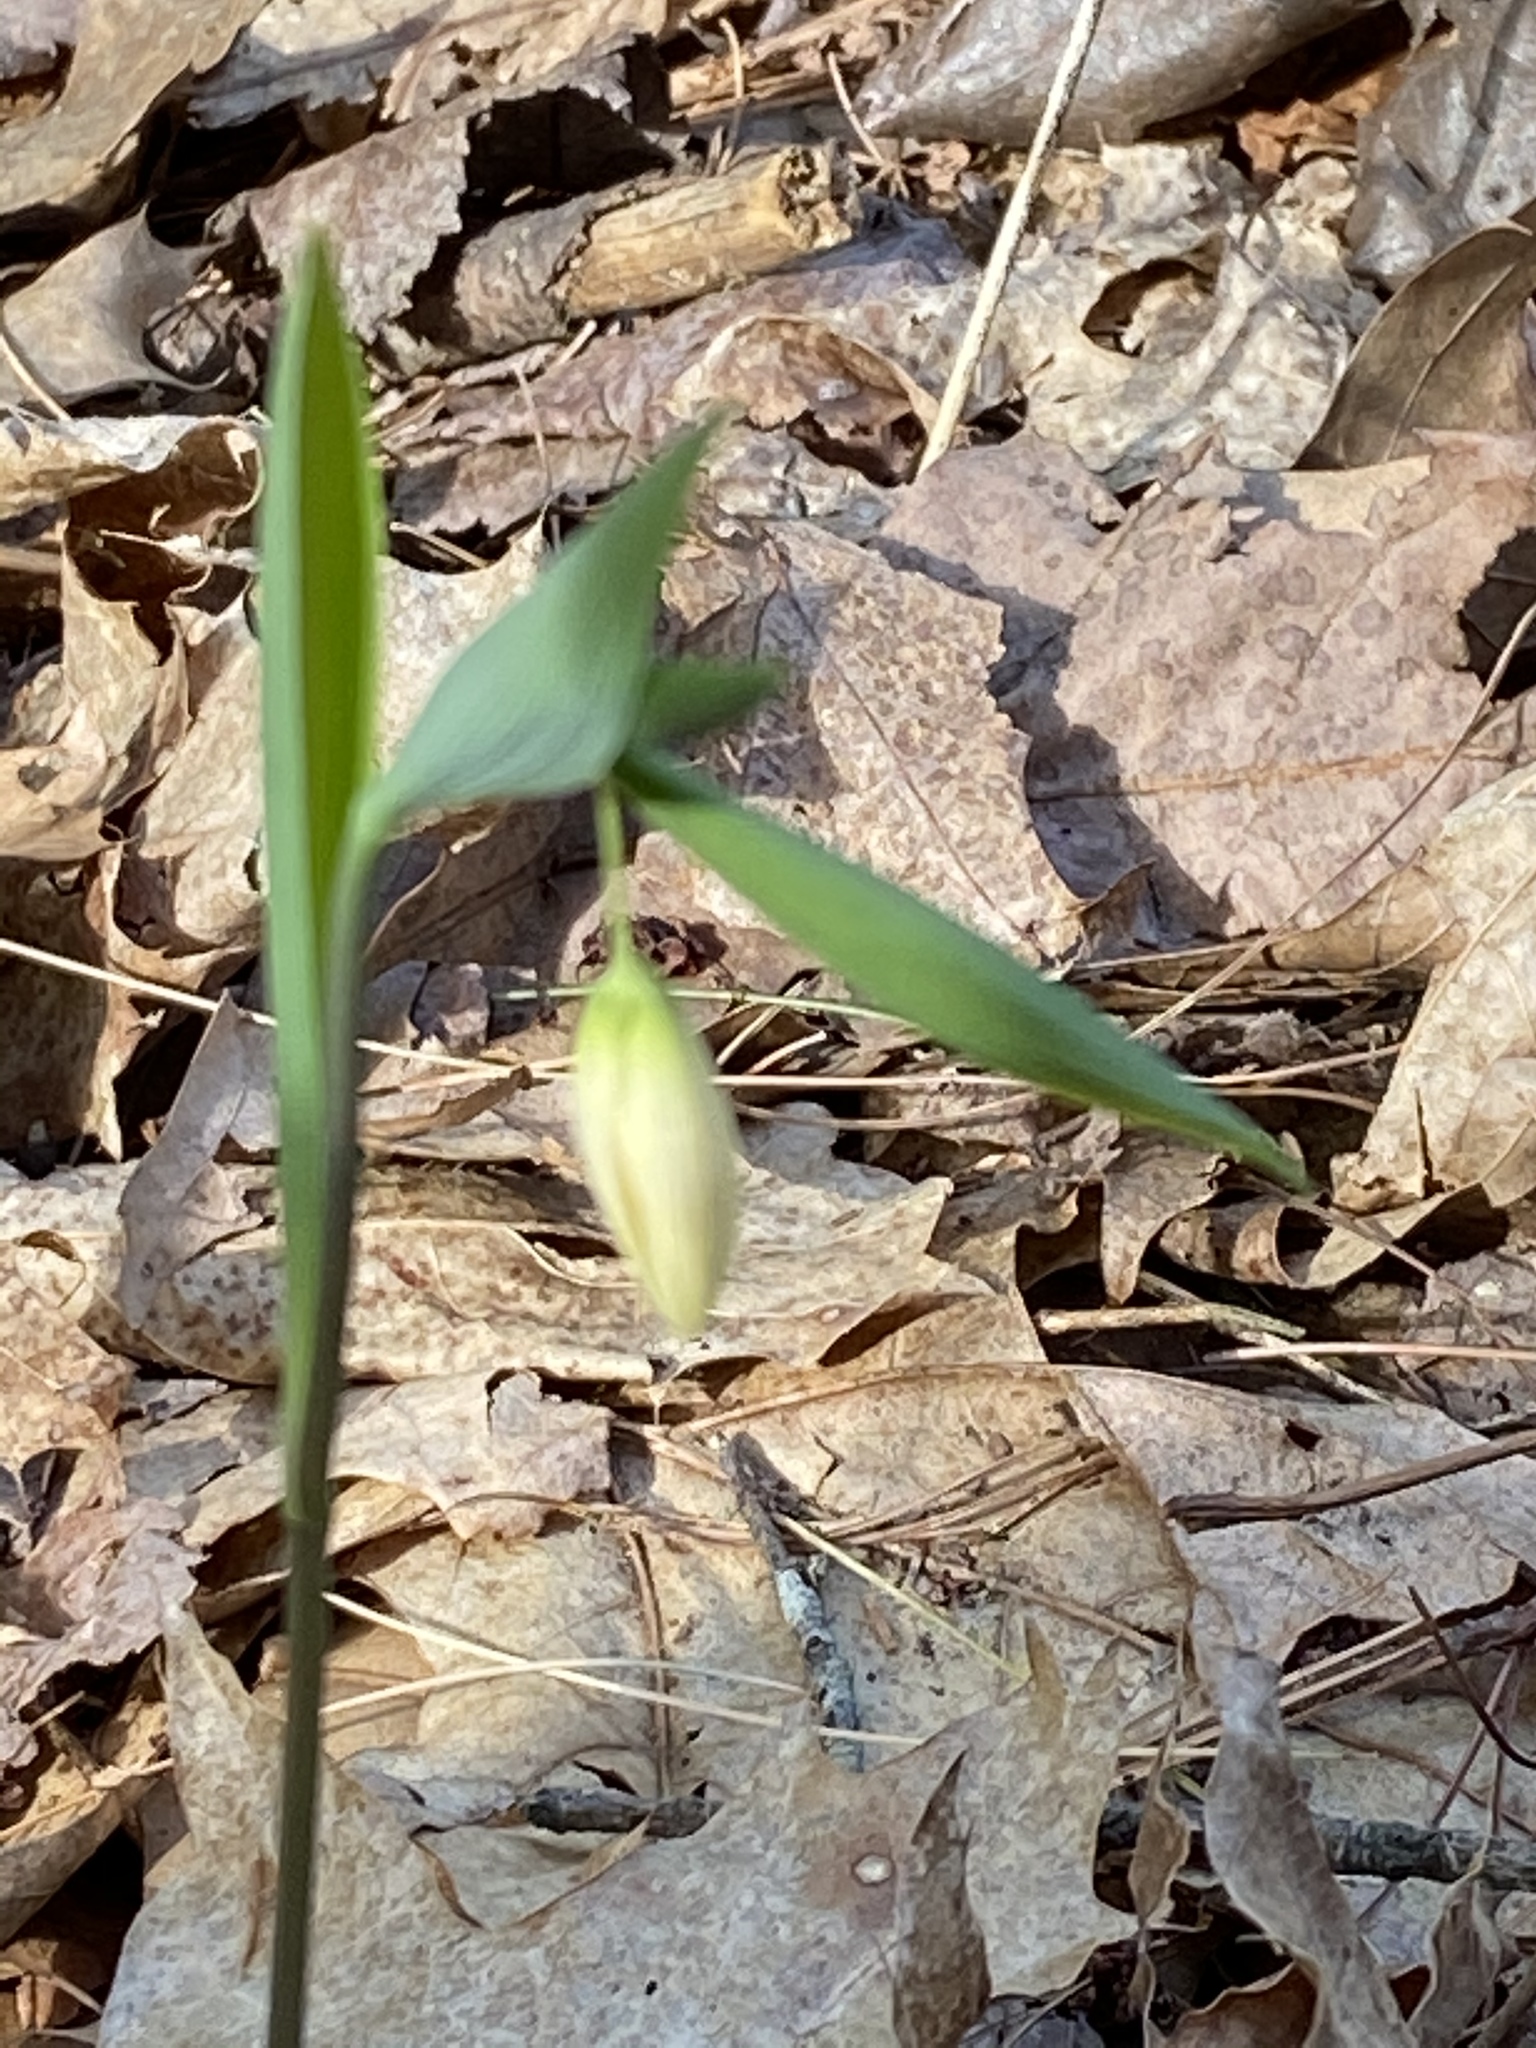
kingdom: Plantae
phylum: Tracheophyta
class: Liliopsida
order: Liliales
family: Colchicaceae
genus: Uvularia
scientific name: Uvularia sessilifolia
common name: Straw-lily
